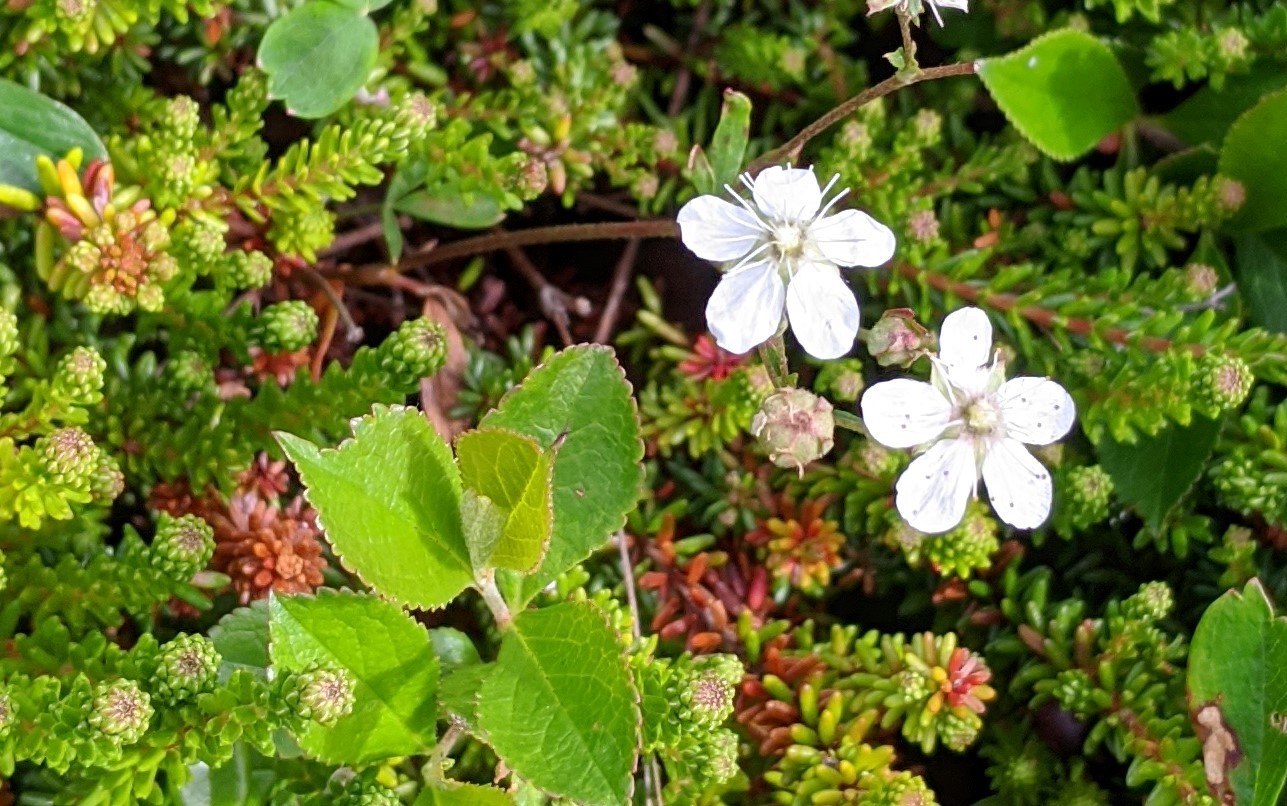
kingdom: Plantae
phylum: Tracheophyta
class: Magnoliopsida
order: Rosales
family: Rosaceae
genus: Sibbaldia
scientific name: Sibbaldia tridentata
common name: Three-toothed cinquefoil
